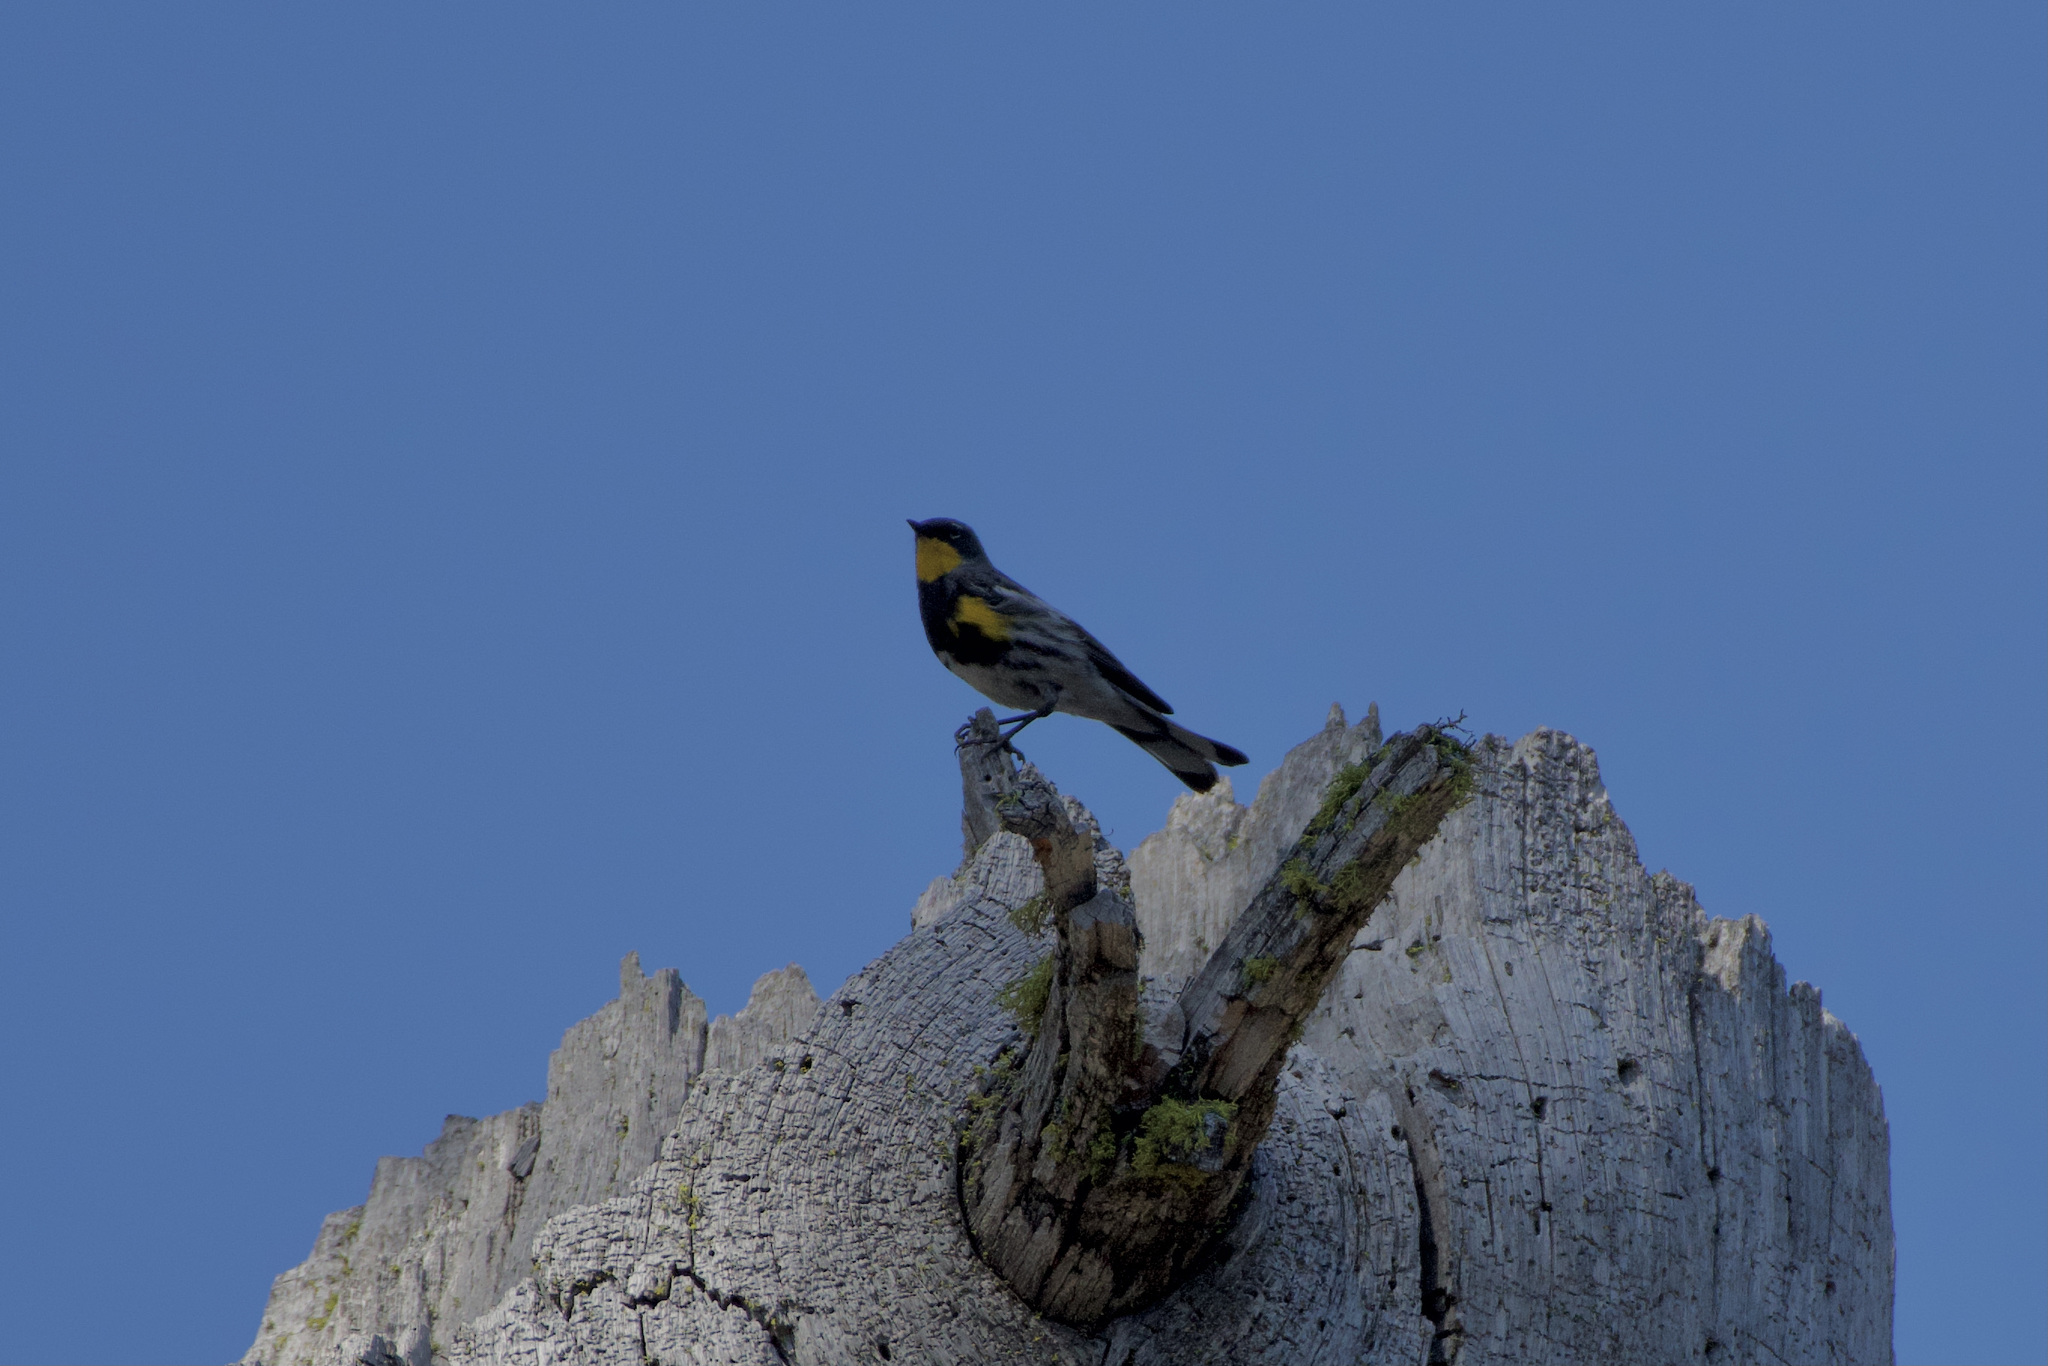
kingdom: Animalia
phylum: Chordata
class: Aves
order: Passeriformes
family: Parulidae
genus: Setophaga
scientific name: Setophaga auduboni
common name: Audubon's warbler
